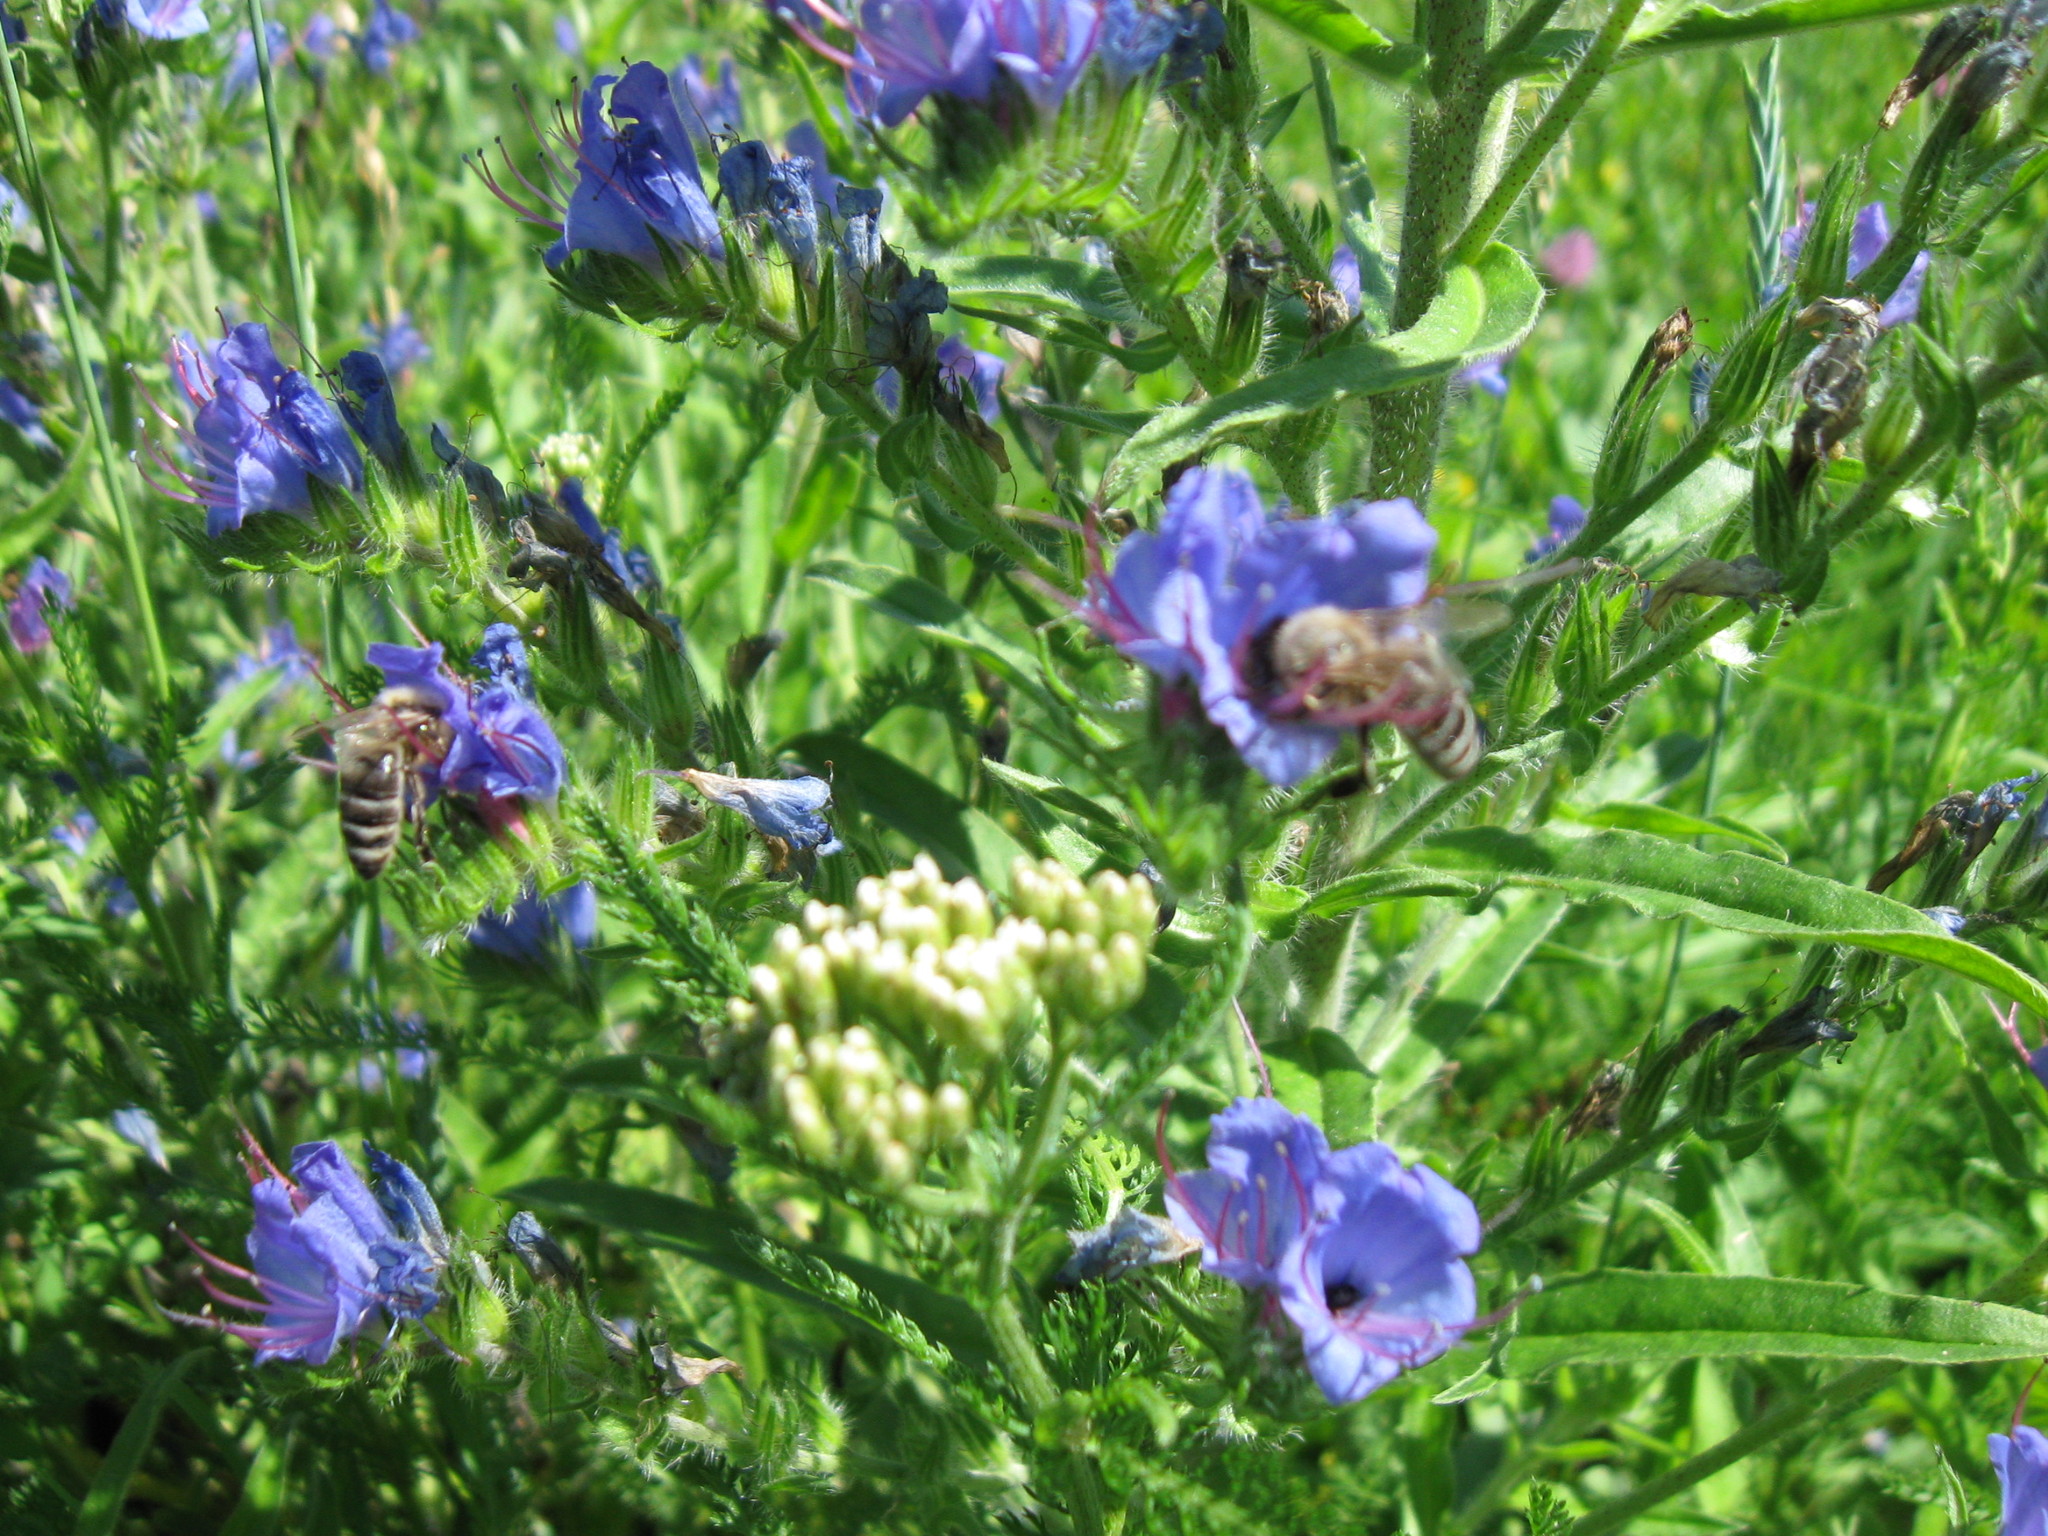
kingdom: Plantae
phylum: Tracheophyta
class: Magnoliopsida
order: Boraginales
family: Boraginaceae
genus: Echium
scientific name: Echium vulgare
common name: Common viper's bugloss
